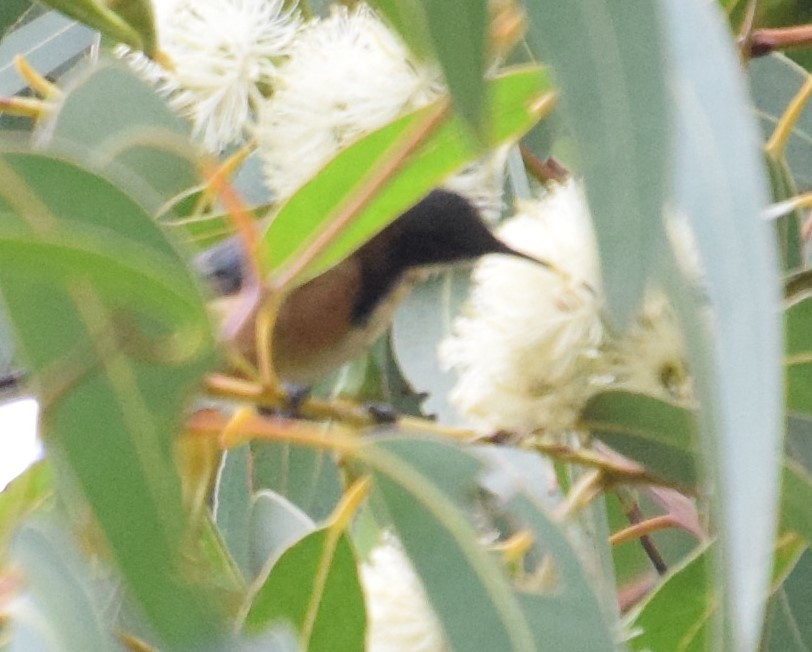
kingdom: Animalia
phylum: Chordata
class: Aves
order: Passeriformes
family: Meliphagidae
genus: Acanthorhynchus
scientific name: Acanthorhynchus tenuirostris
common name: Eastern spinebill
